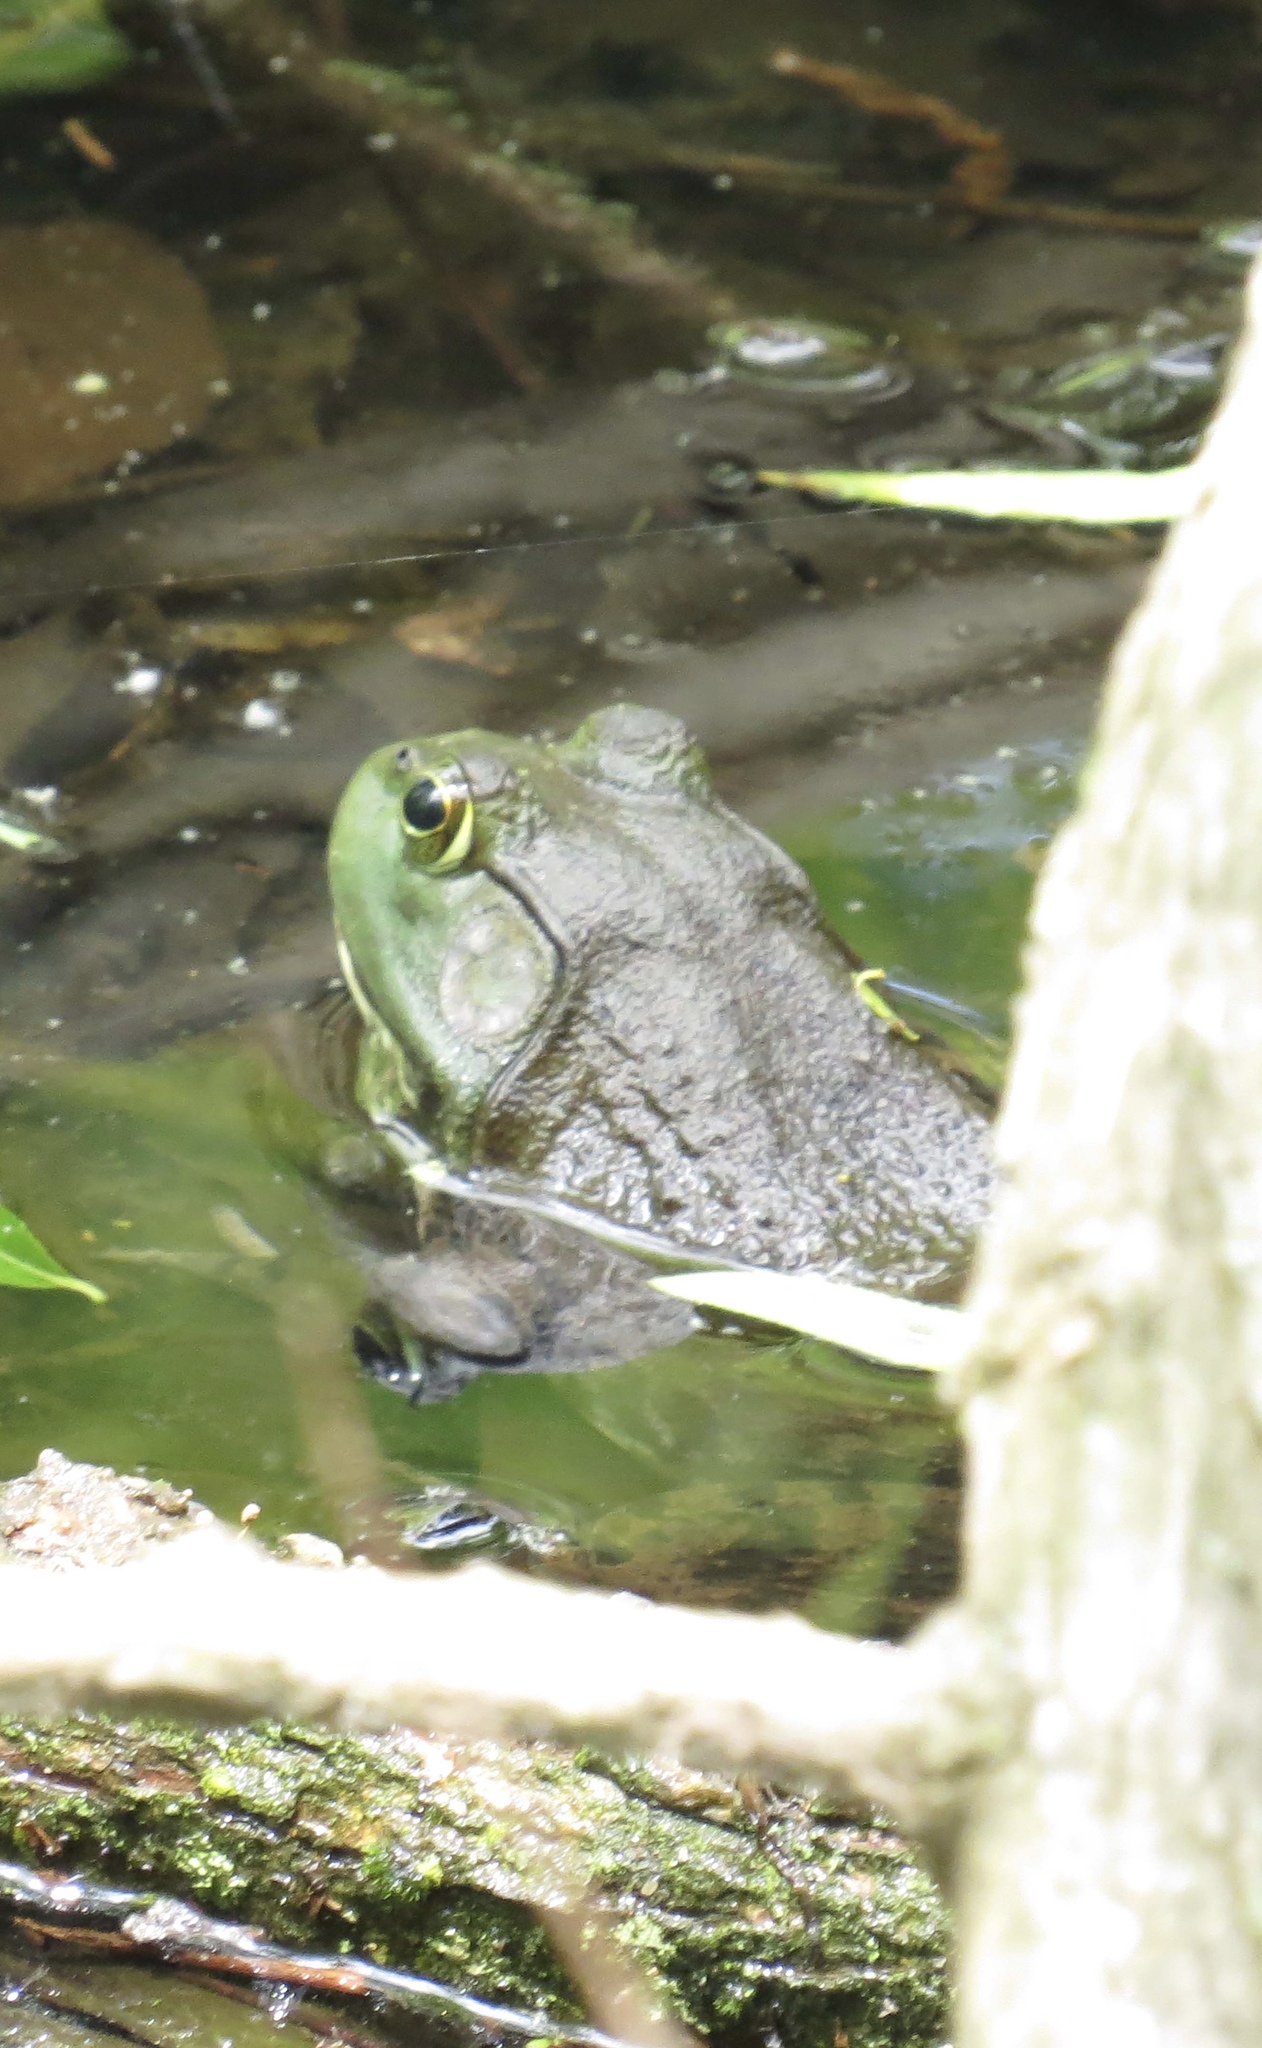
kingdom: Animalia
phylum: Chordata
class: Amphibia
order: Anura
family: Ranidae
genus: Lithobates
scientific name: Lithobates catesbeianus
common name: American bullfrog
